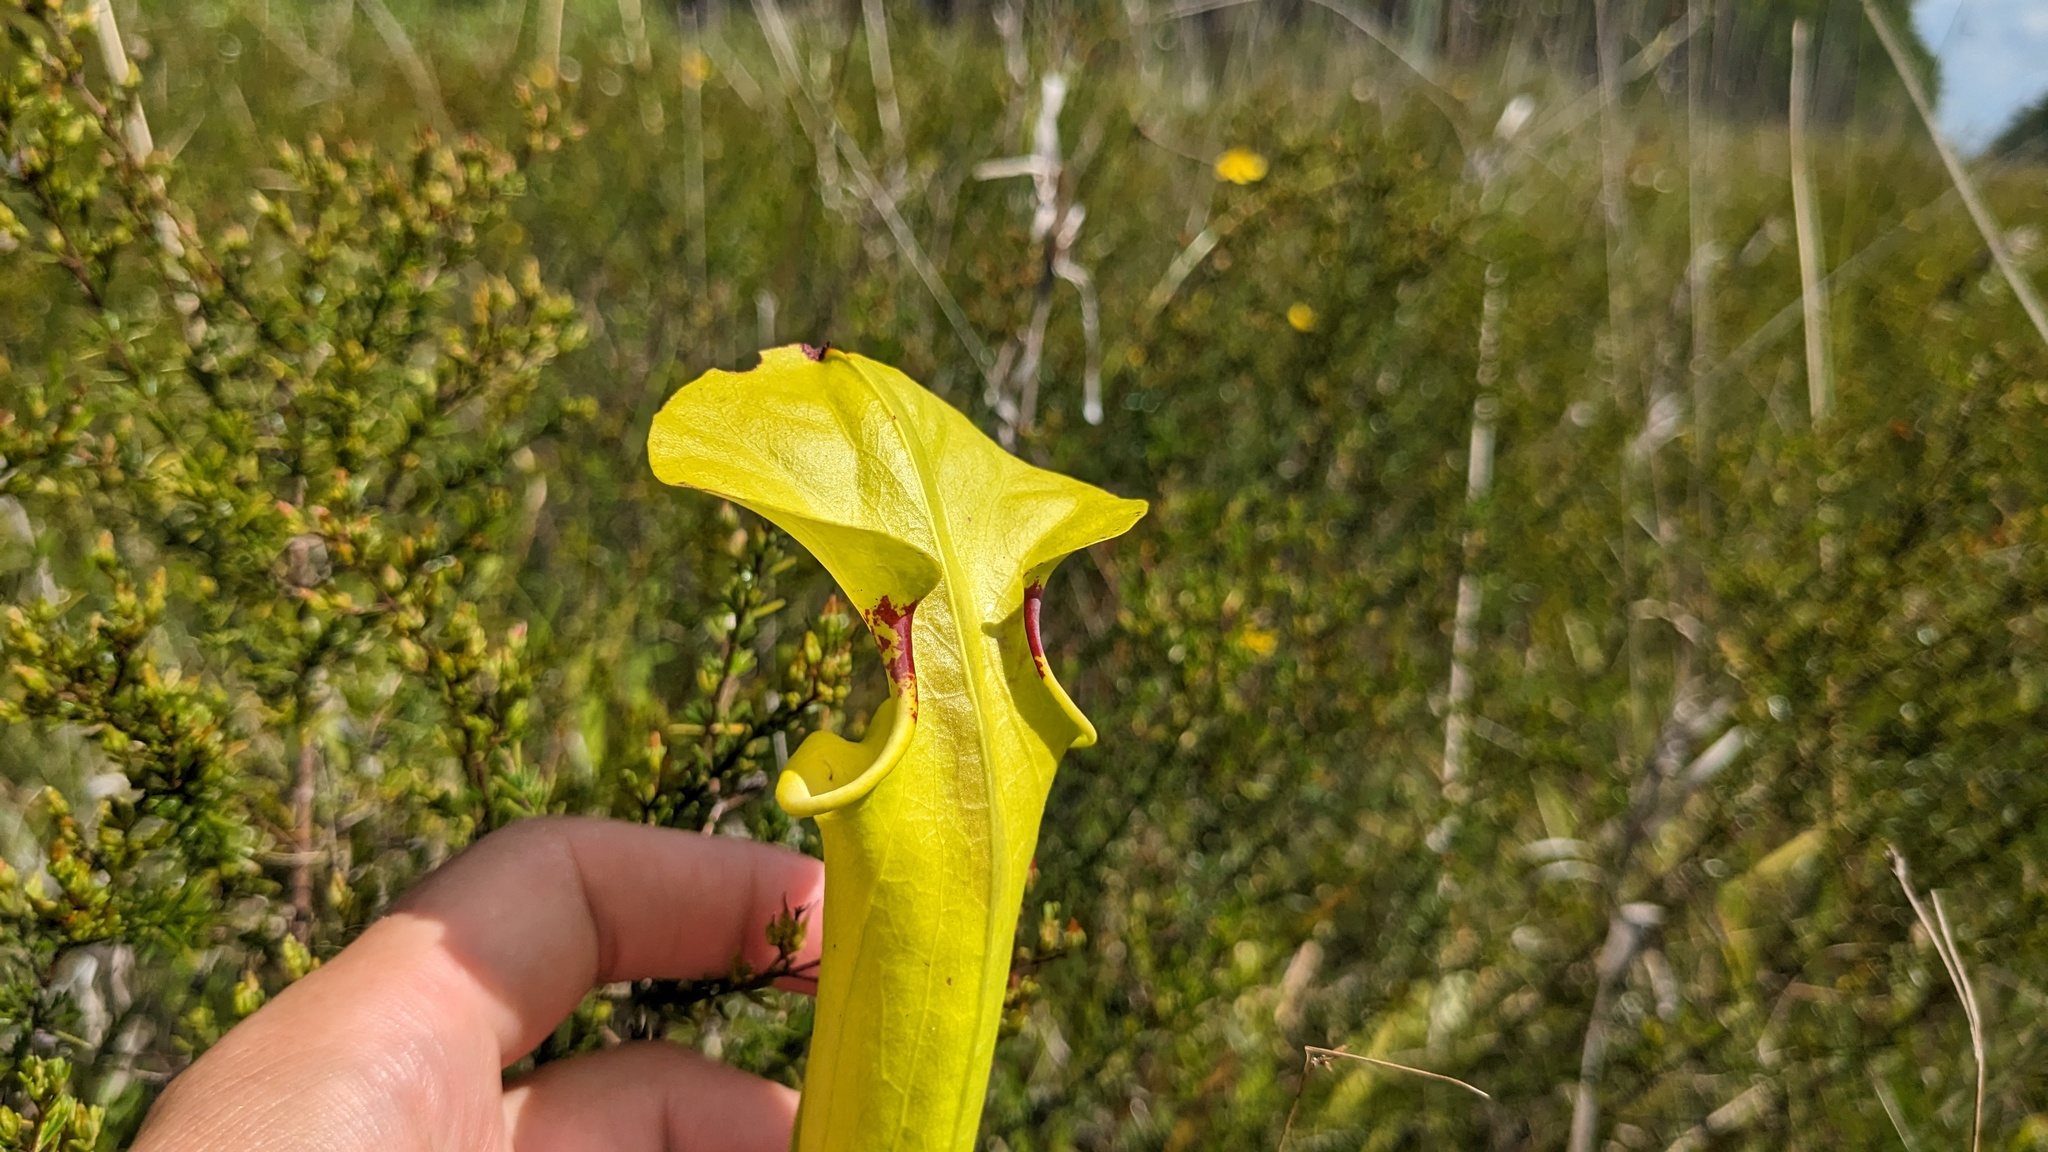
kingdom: Plantae
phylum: Tracheophyta
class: Magnoliopsida
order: Ericales
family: Sarraceniaceae
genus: Sarracenia
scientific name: Sarracenia flava
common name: Trumpets
